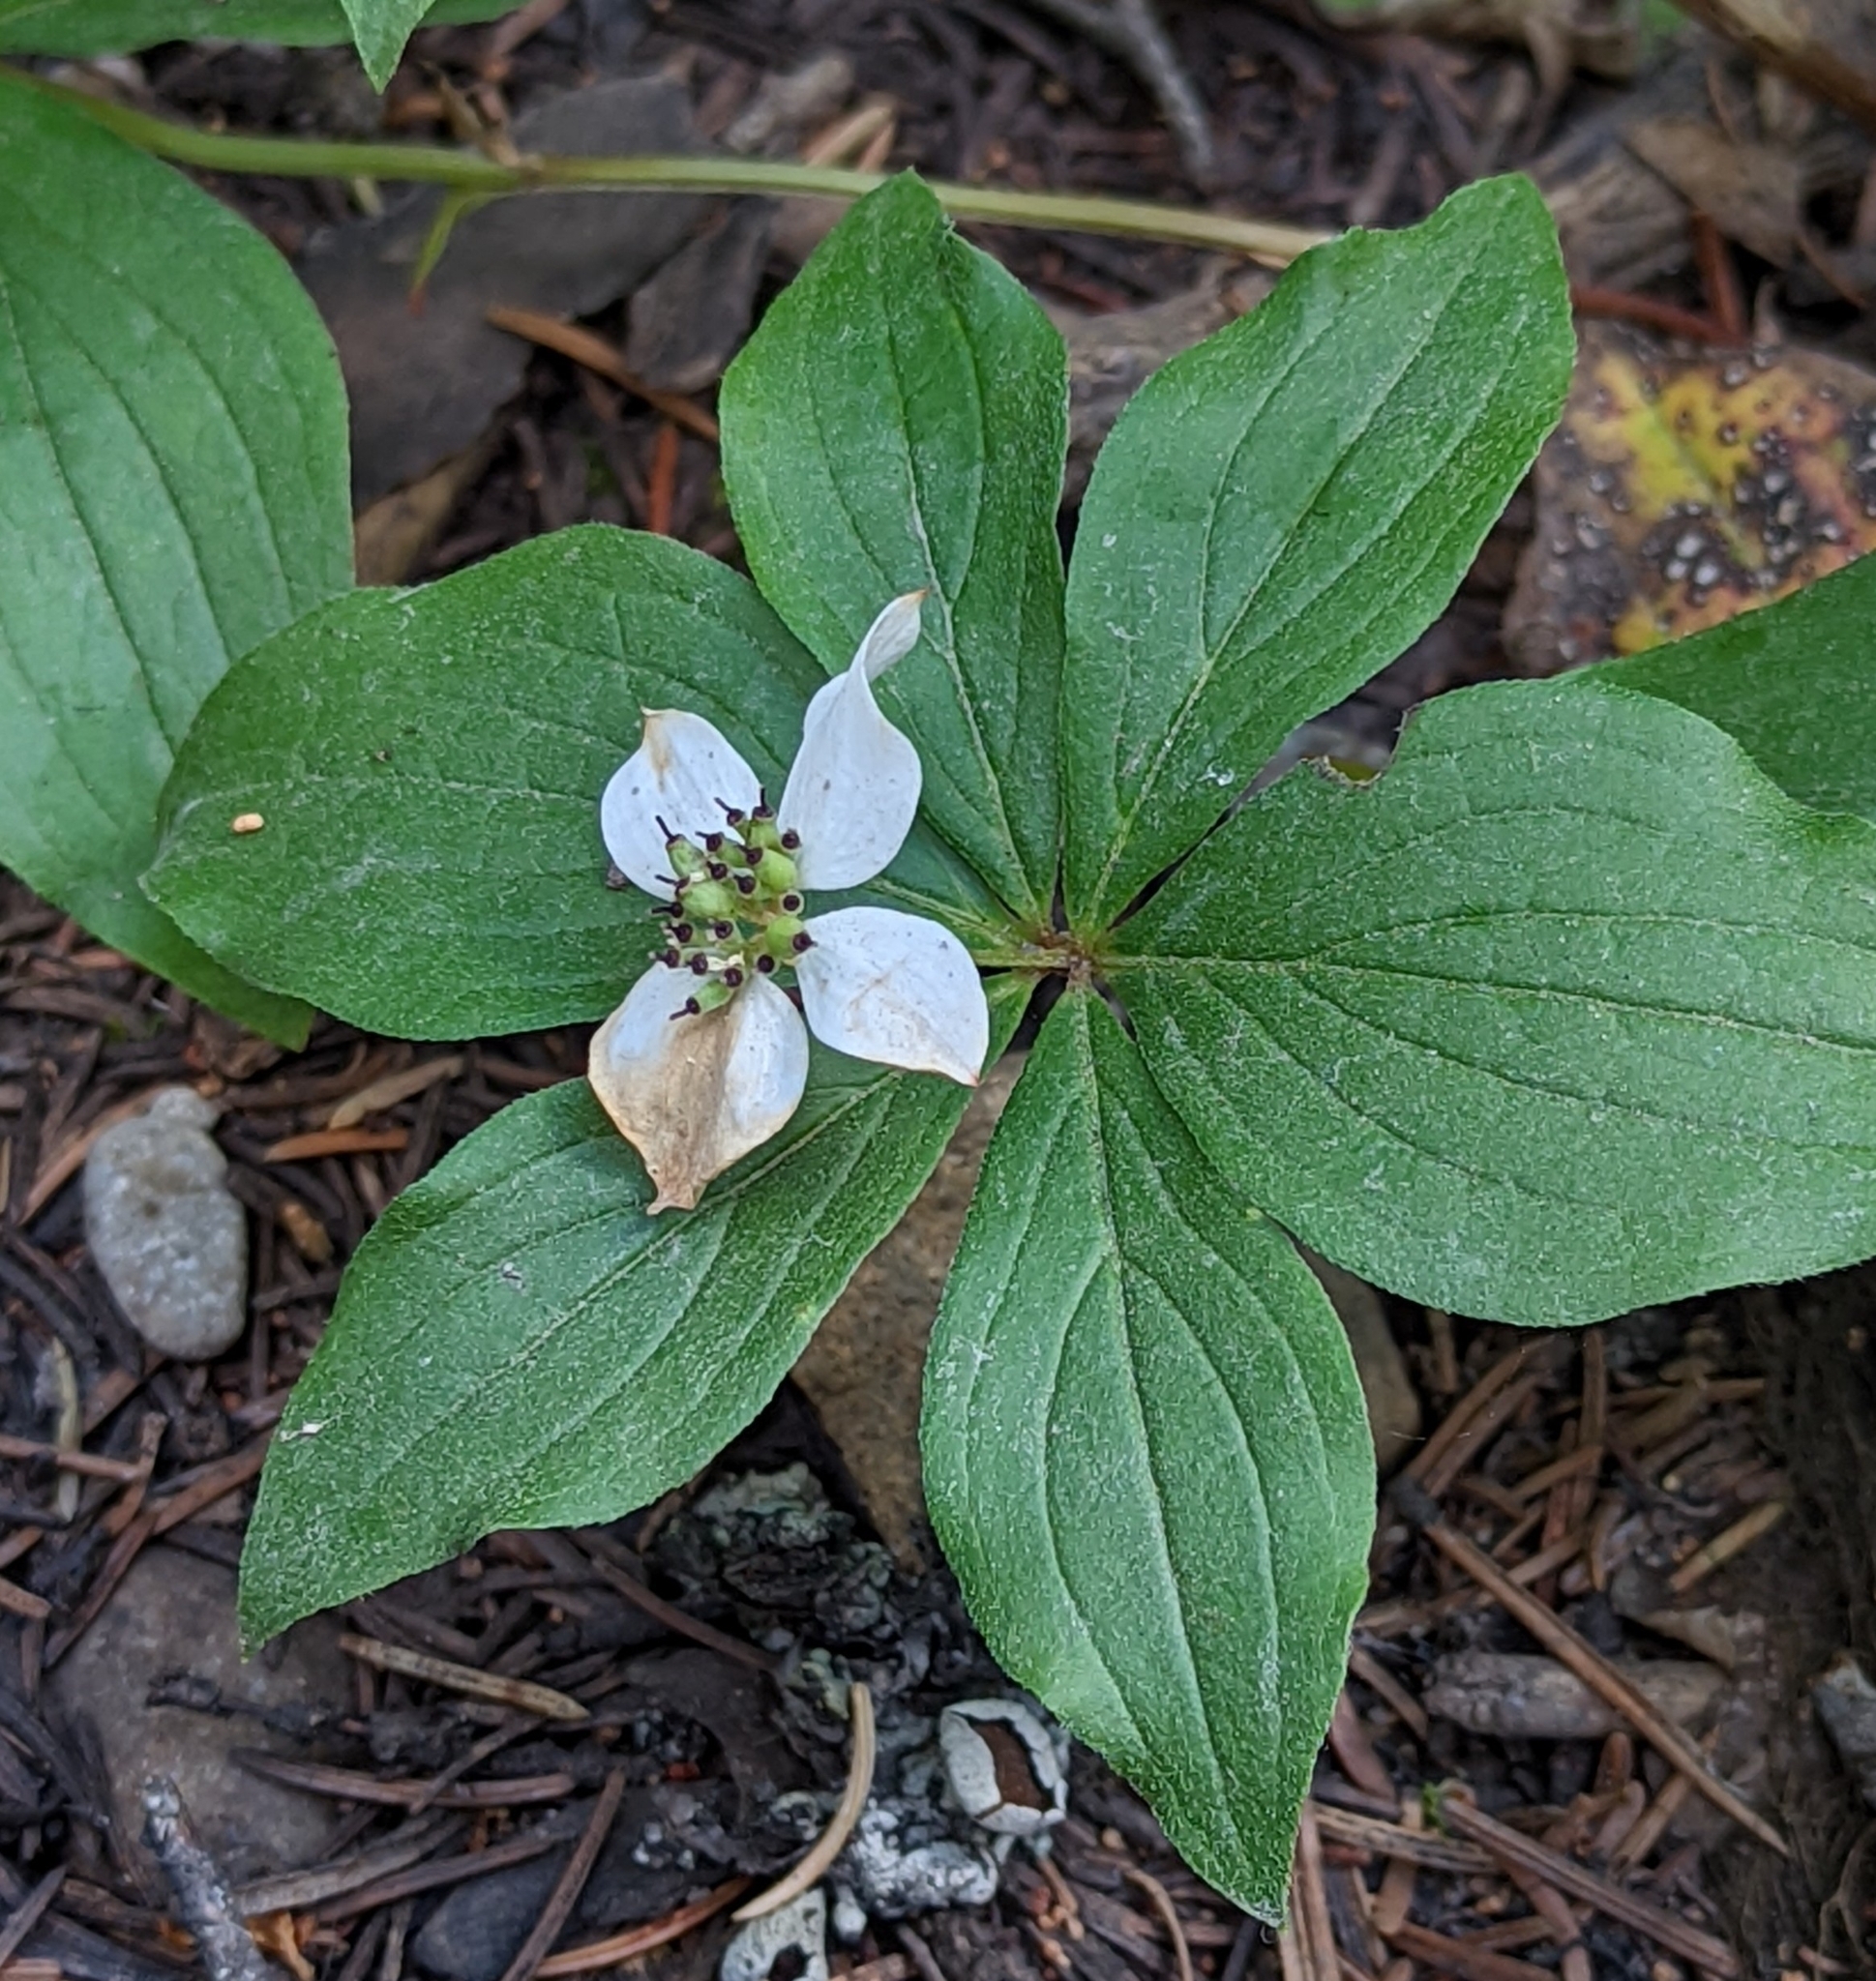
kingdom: Plantae
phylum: Tracheophyta
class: Magnoliopsida
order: Cornales
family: Cornaceae
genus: Cornus
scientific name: Cornus canadensis
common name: Creeping dogwood
